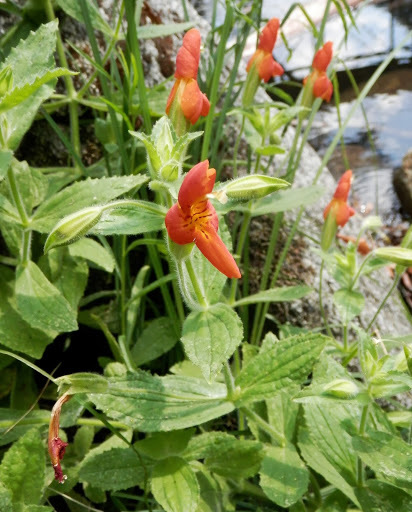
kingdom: Plantae
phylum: Tracheophyta
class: Magnoliopsida
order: Lamiales
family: Phrymaceae
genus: Erythranthe
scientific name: Erythranthe cardinalis
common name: Scarlet monkey-flower
